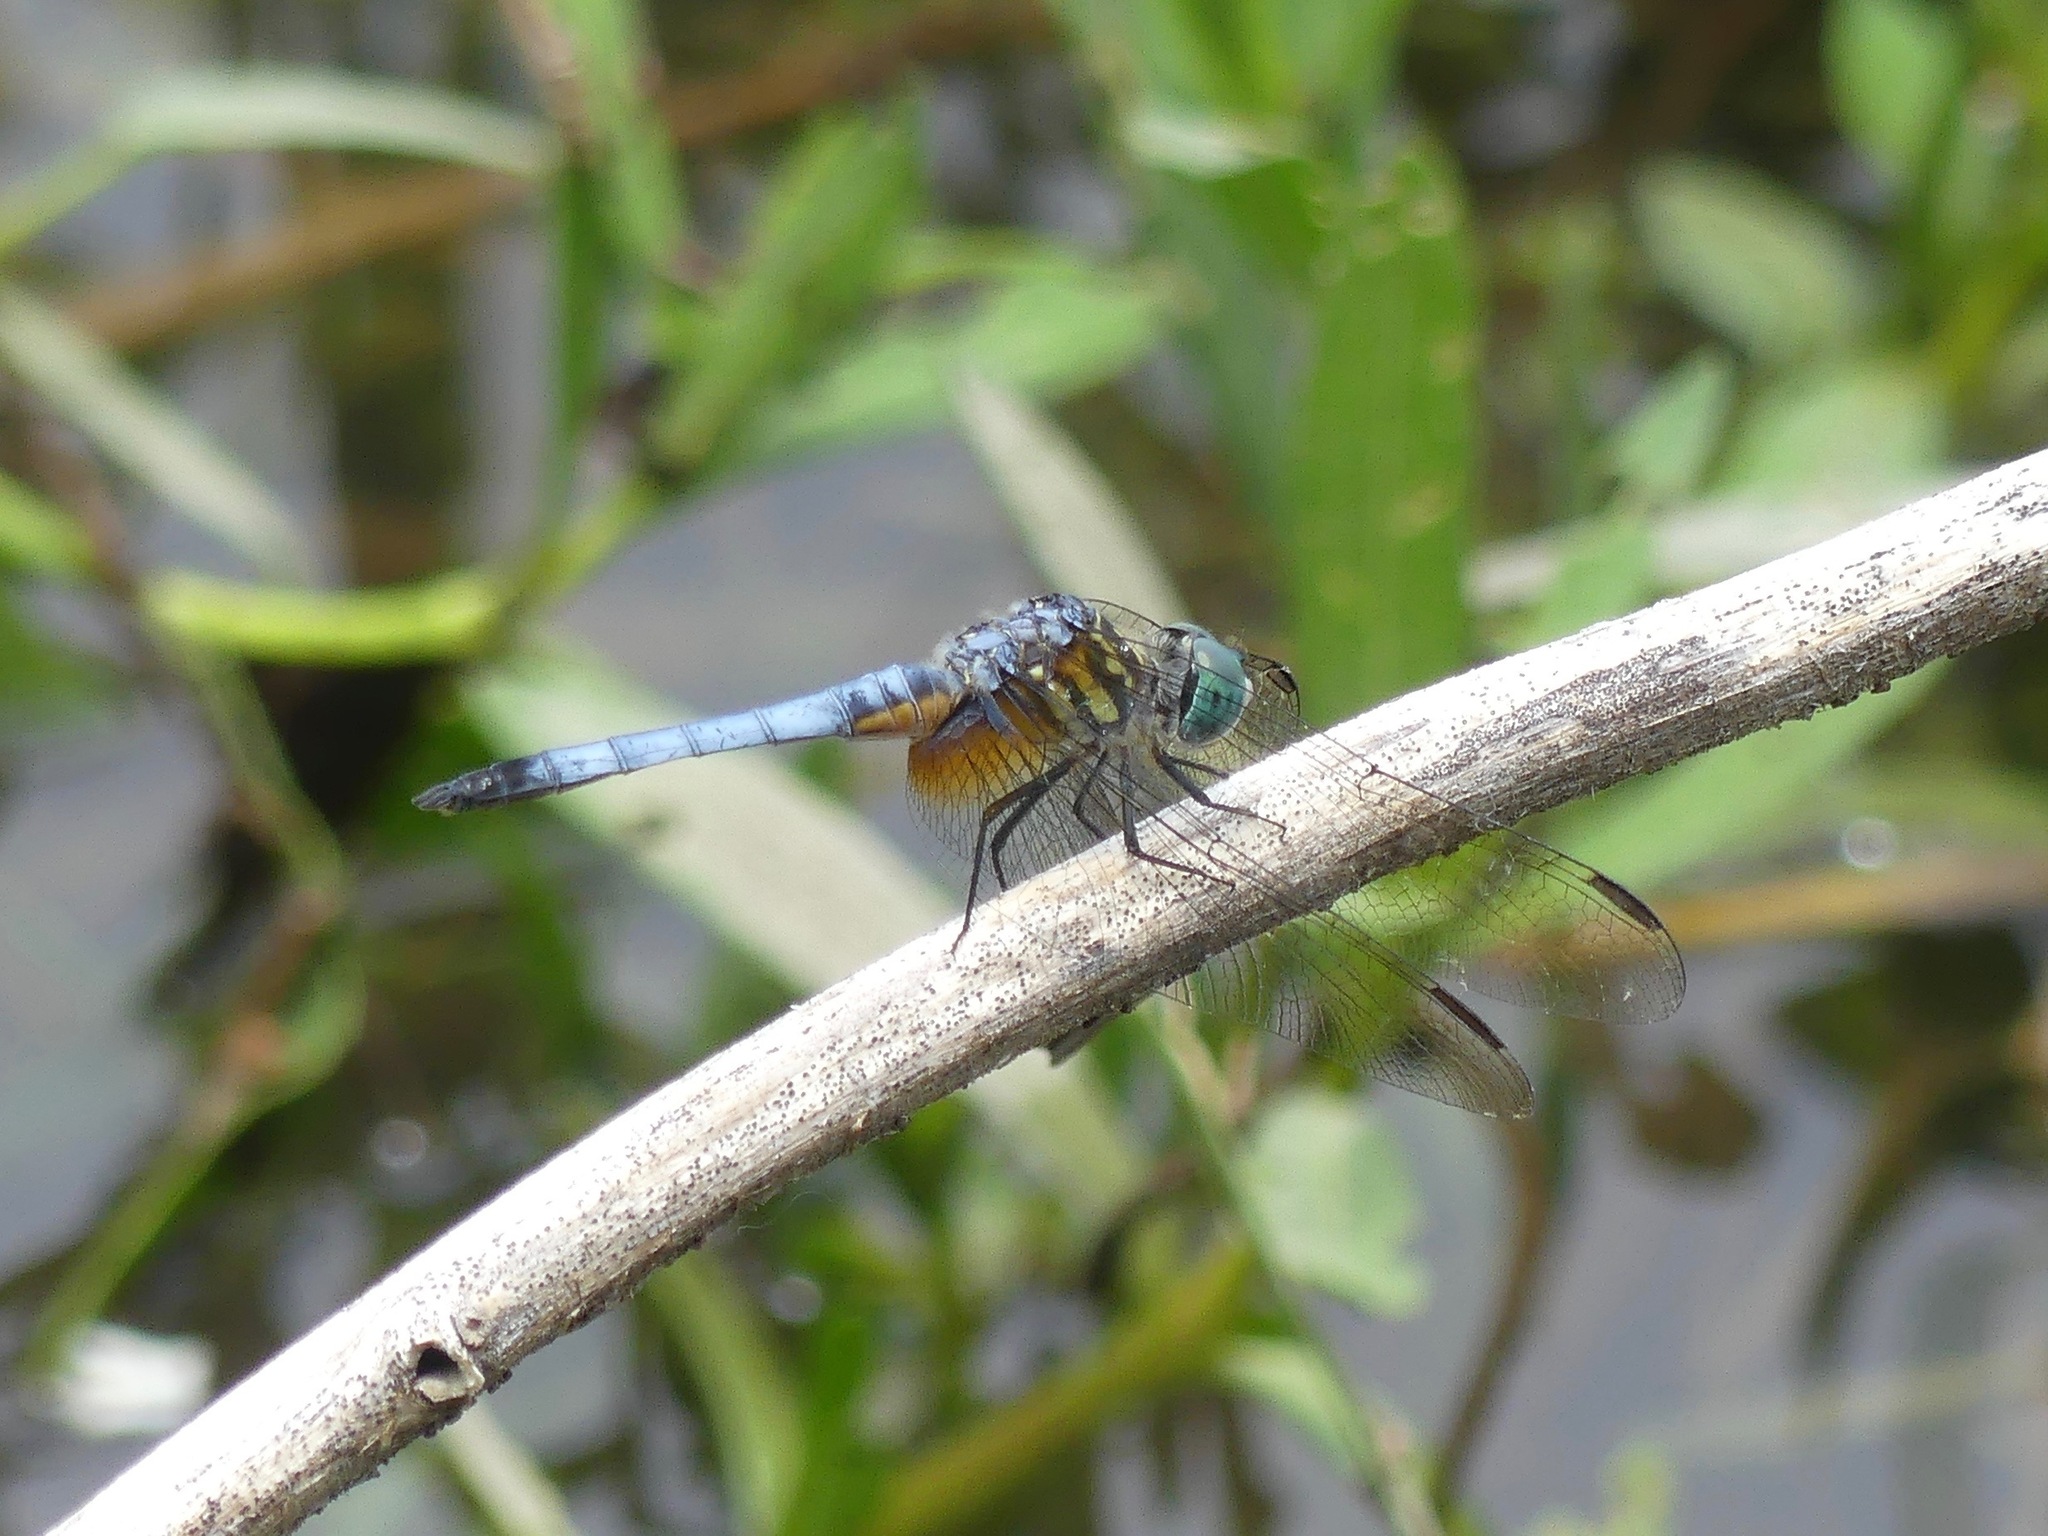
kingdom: Animalia
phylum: Arthropoda
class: Insecta
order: Odonata
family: Libellulidae
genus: Pachydiplax
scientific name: Pachydiplax longipennis
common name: Blue dasher
